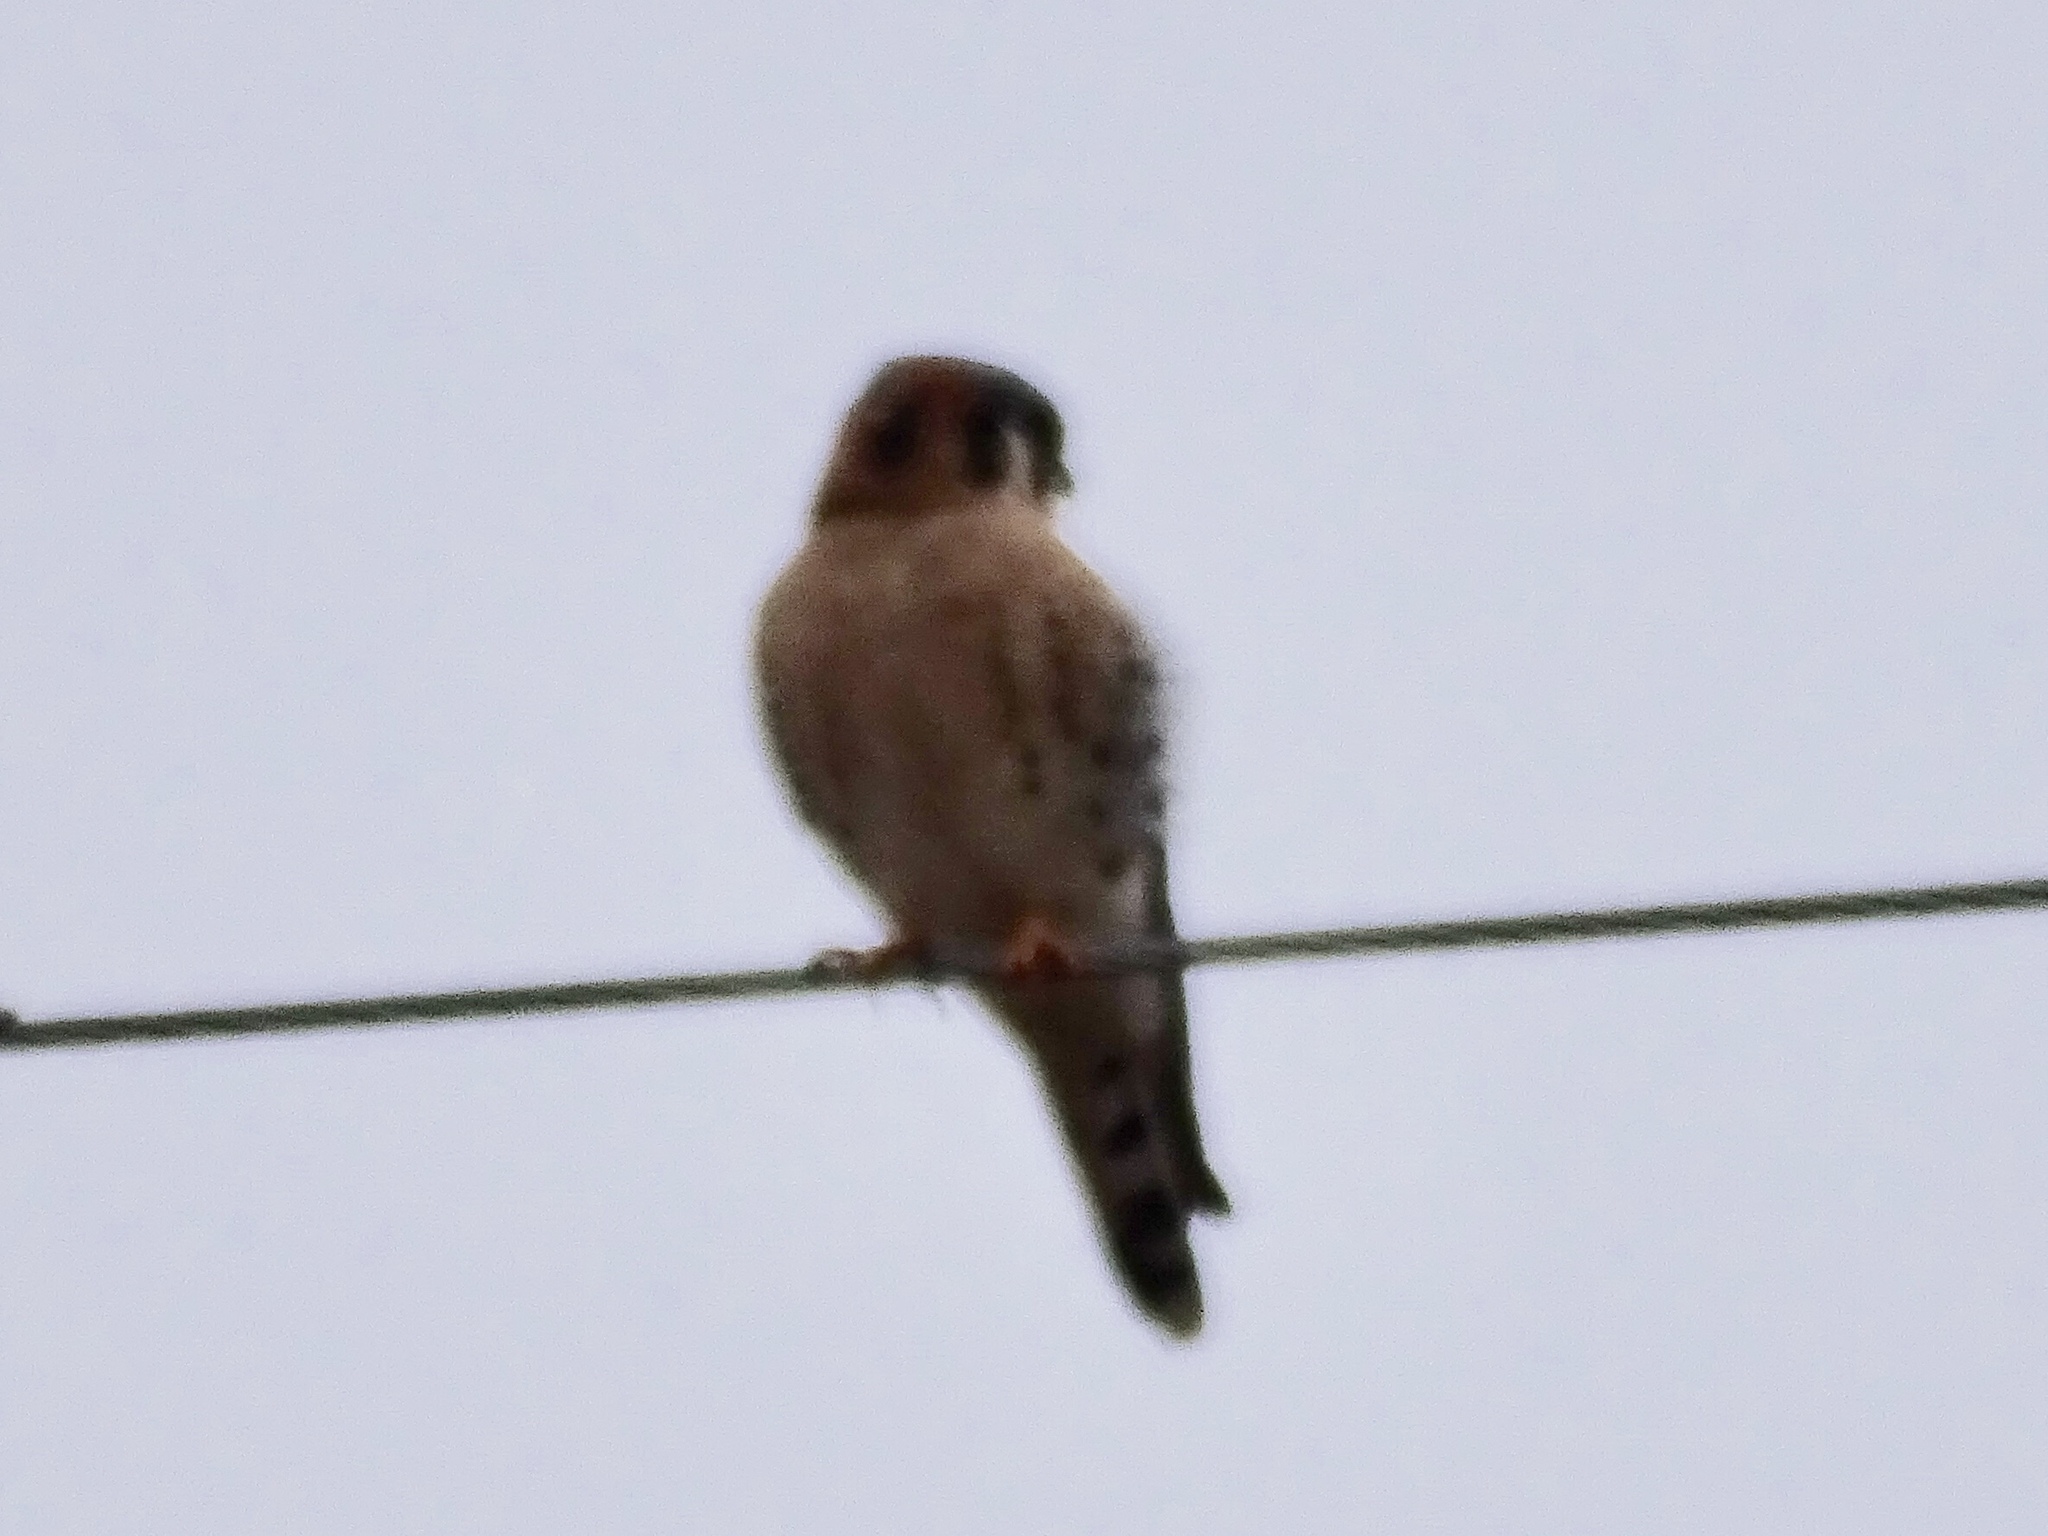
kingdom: Animalia
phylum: Chordata
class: Aves
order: Falconiformes
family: Falconidae
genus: Falco
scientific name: Falco sparverius
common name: American kestrel
